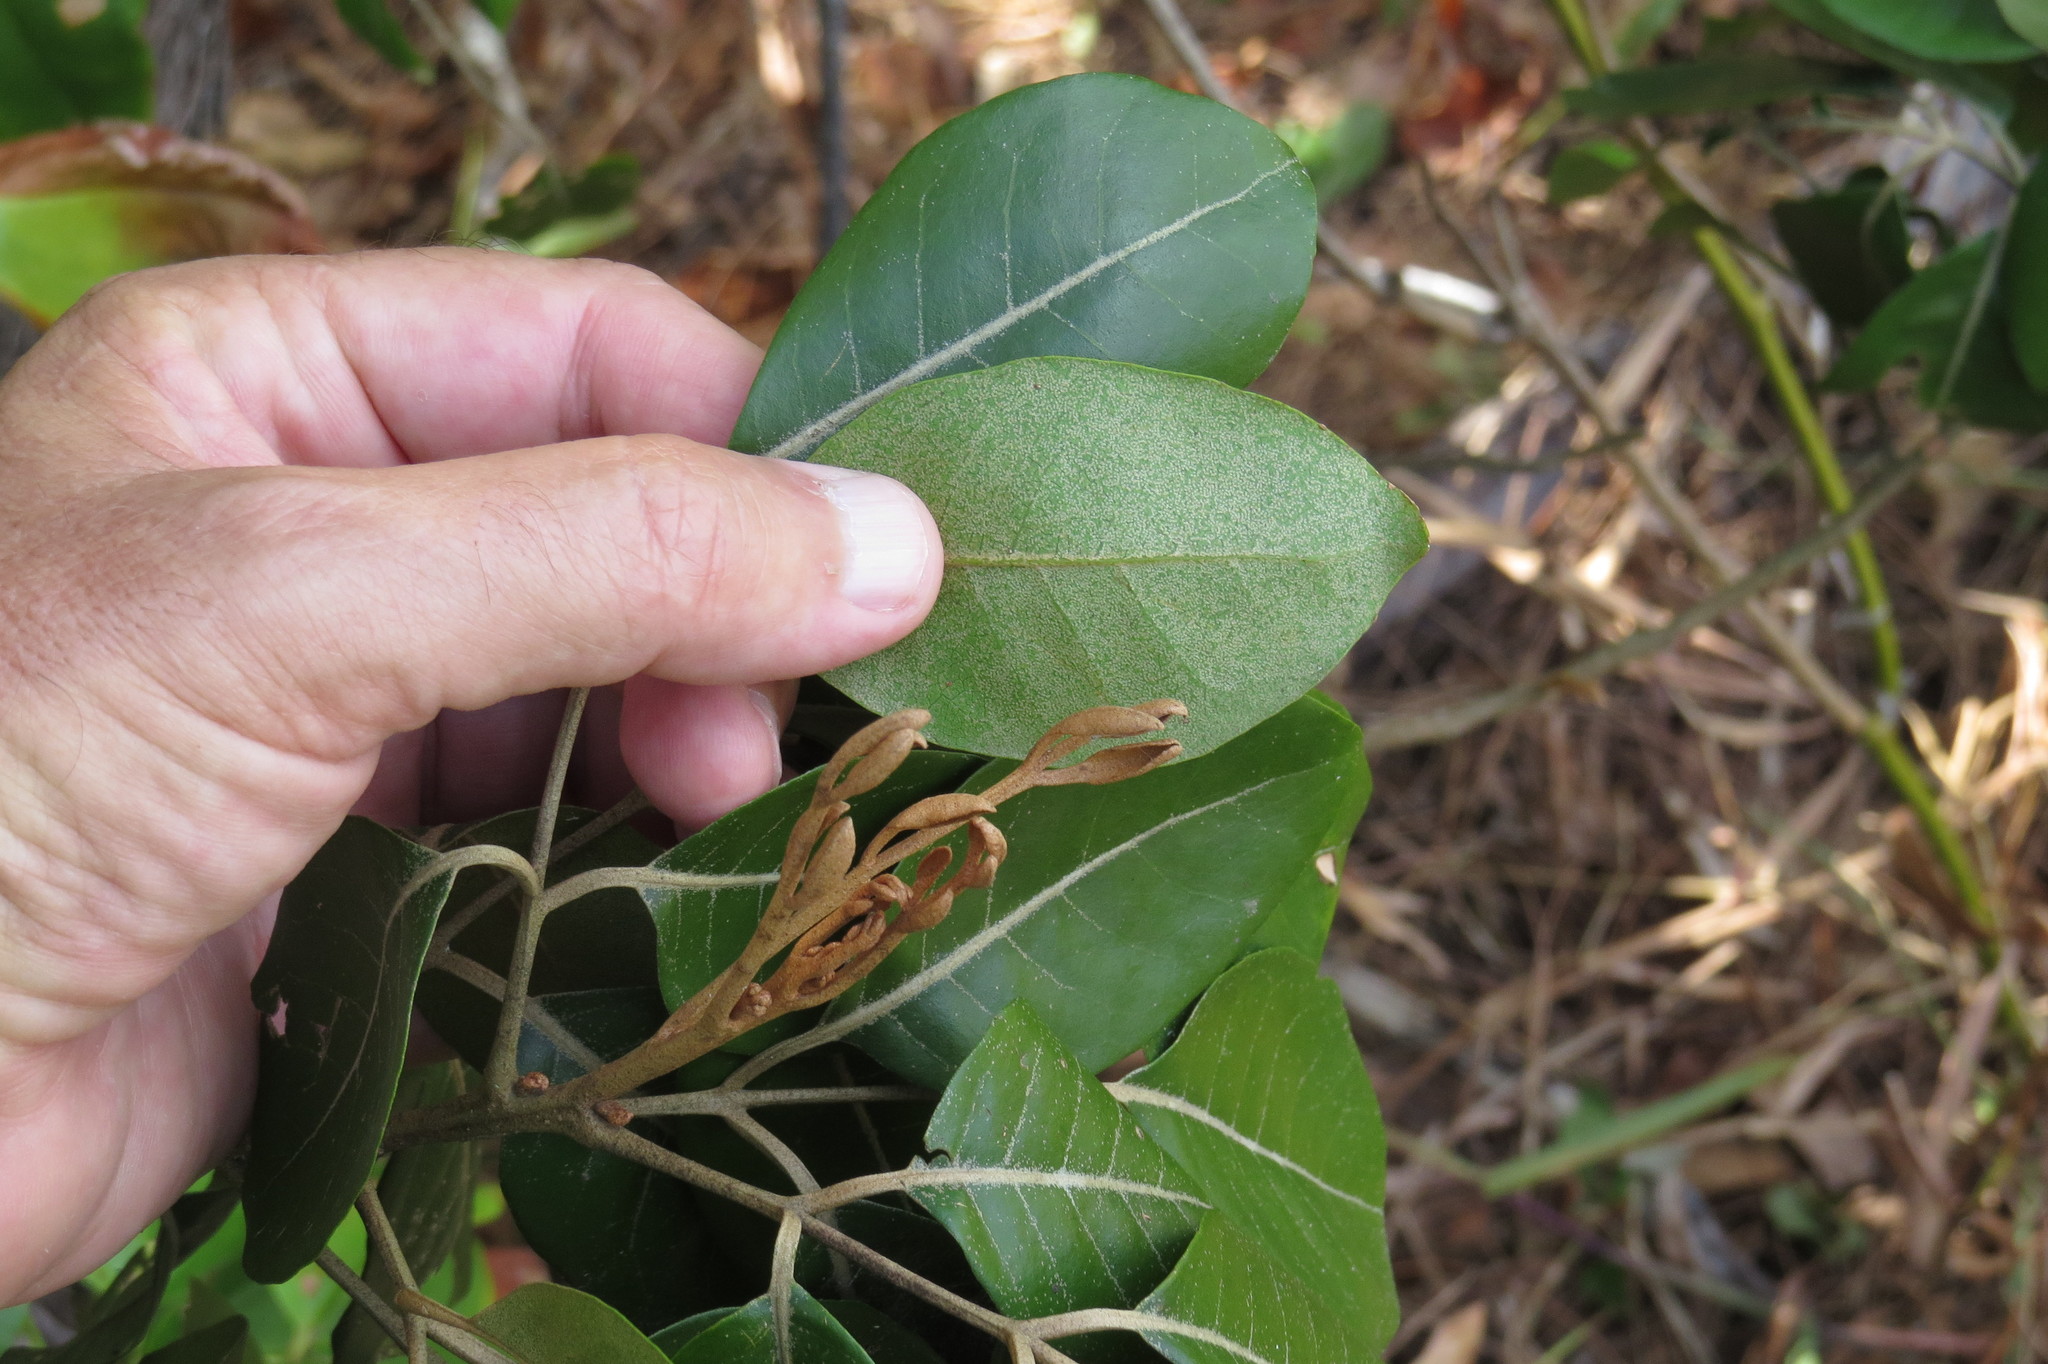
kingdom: Plantae
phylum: Tracheophyta
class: Magnoliopsida
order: Sapindales
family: Meliaceae
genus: Aglaia
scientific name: Aglaia elaeagnoidea
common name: Droopyleaf
